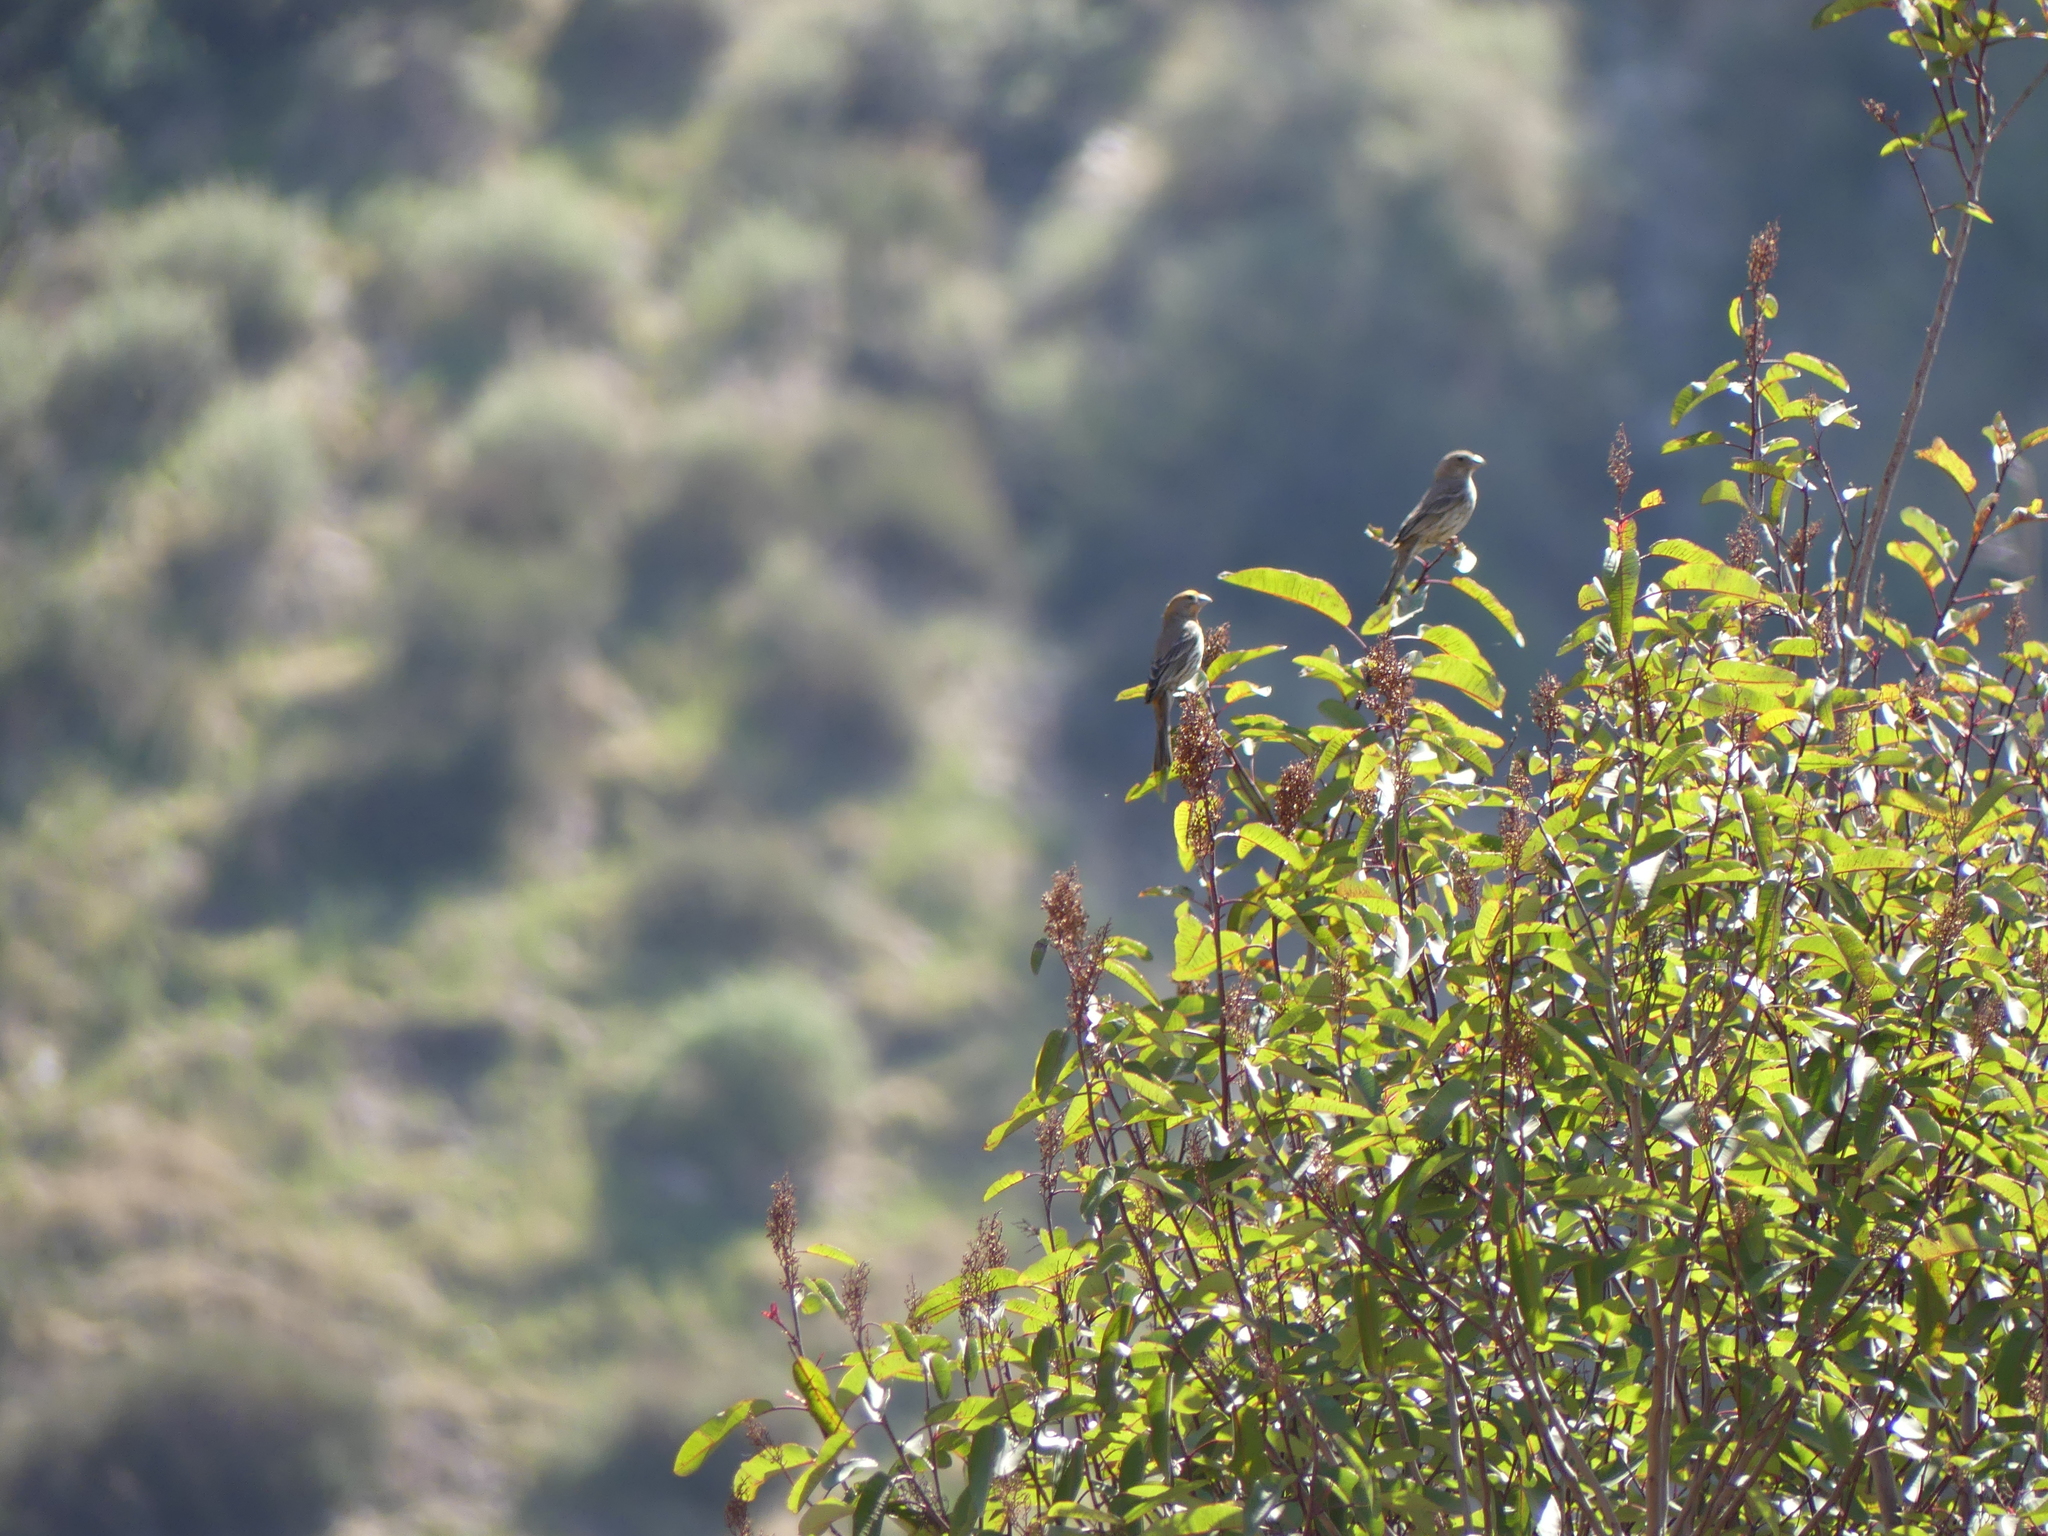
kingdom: Animalia
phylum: Chordata
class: Aves
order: Passeriformes
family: Fringillidae
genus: Haemorhous
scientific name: Haemorhous mexicanus
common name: House finch
